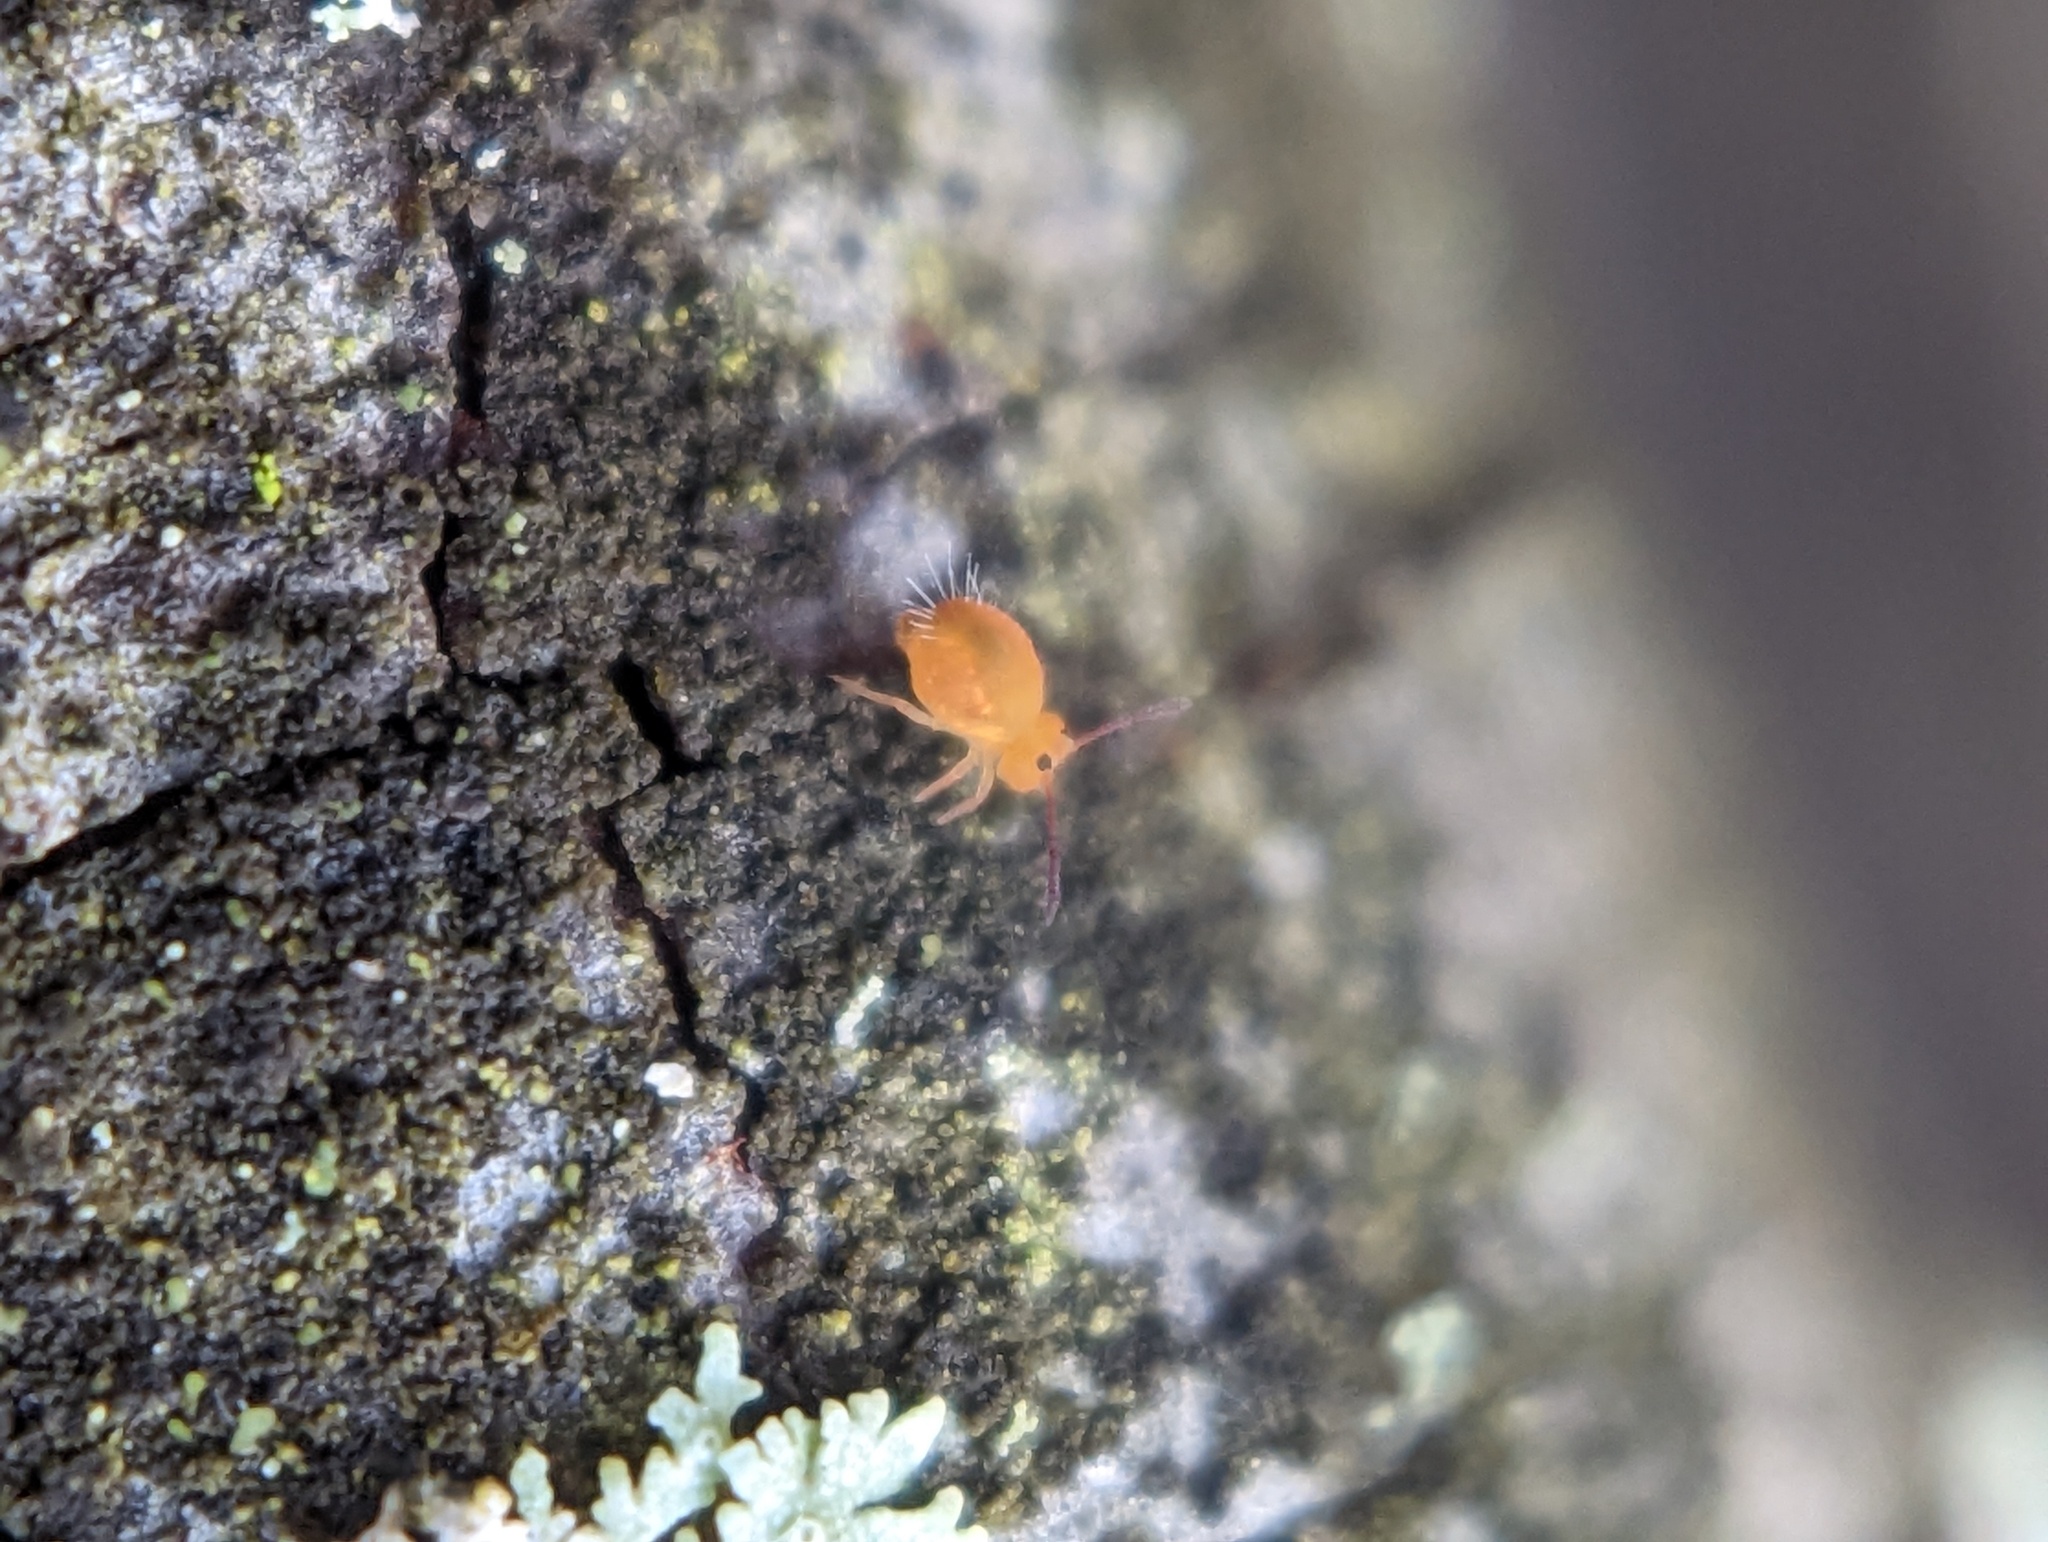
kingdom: Animalia
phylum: Arthropoda
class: Collembola
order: Symphypleona
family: Dicyrtomidae
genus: Dicyrtomina
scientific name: Dicyrtomina minuta
